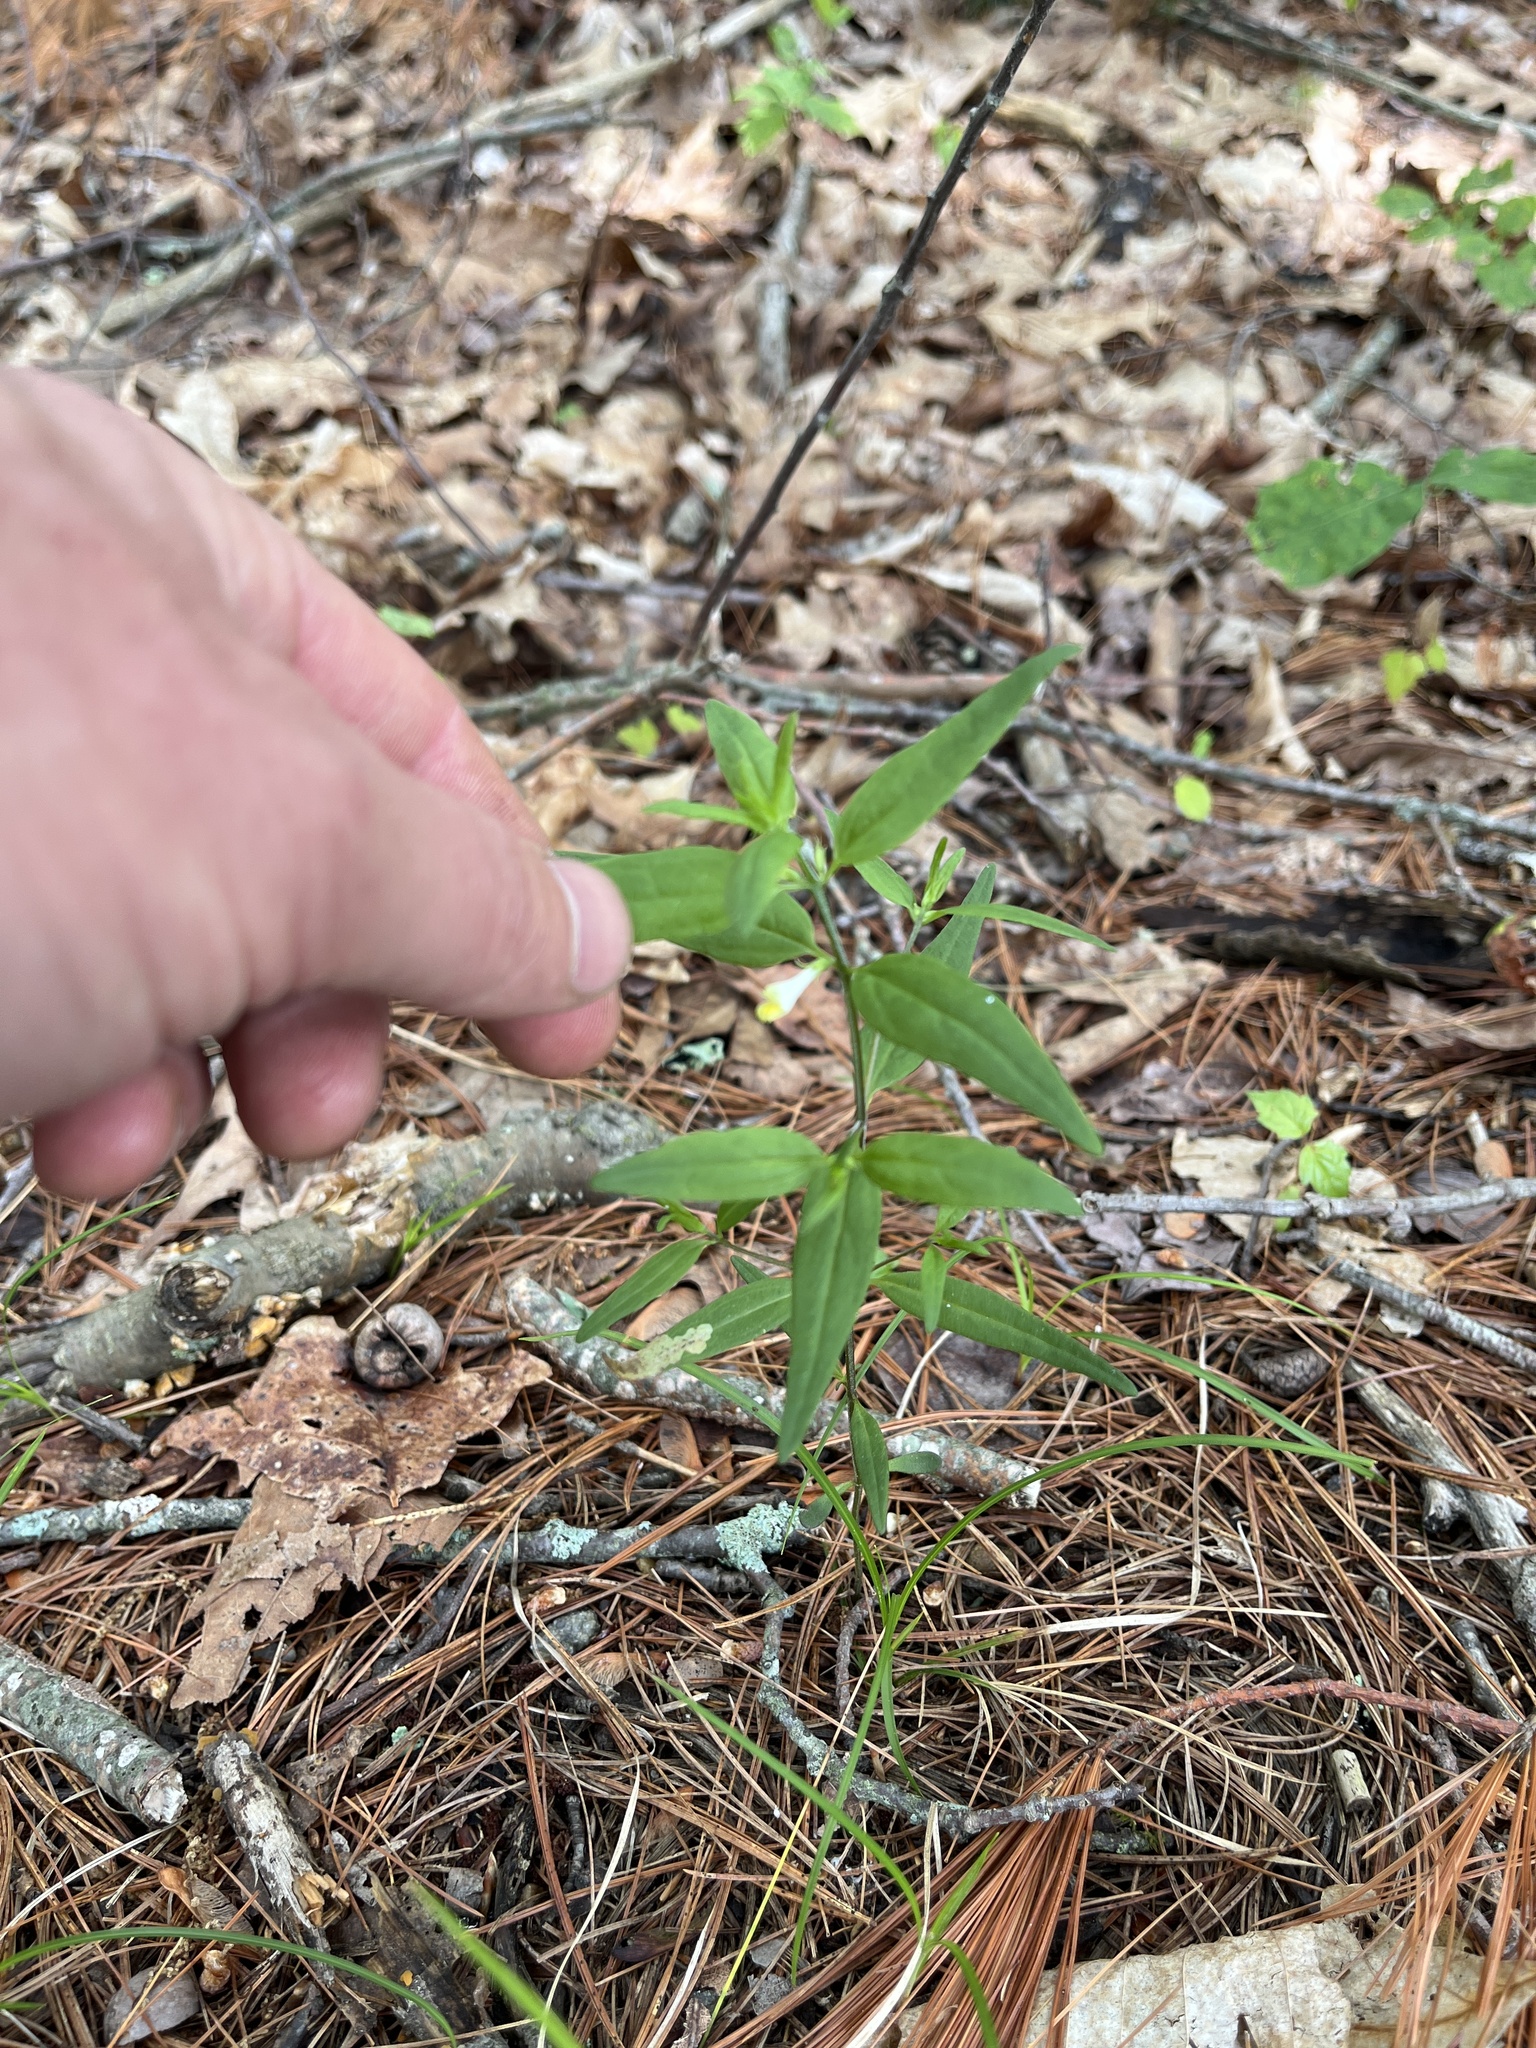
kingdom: Plantae
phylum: Tracheophyta
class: Magnoliopsida
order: Lamiales
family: Orobanchaceae
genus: Melampyrum
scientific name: Melampyrum lineare
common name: American cow-wheat
